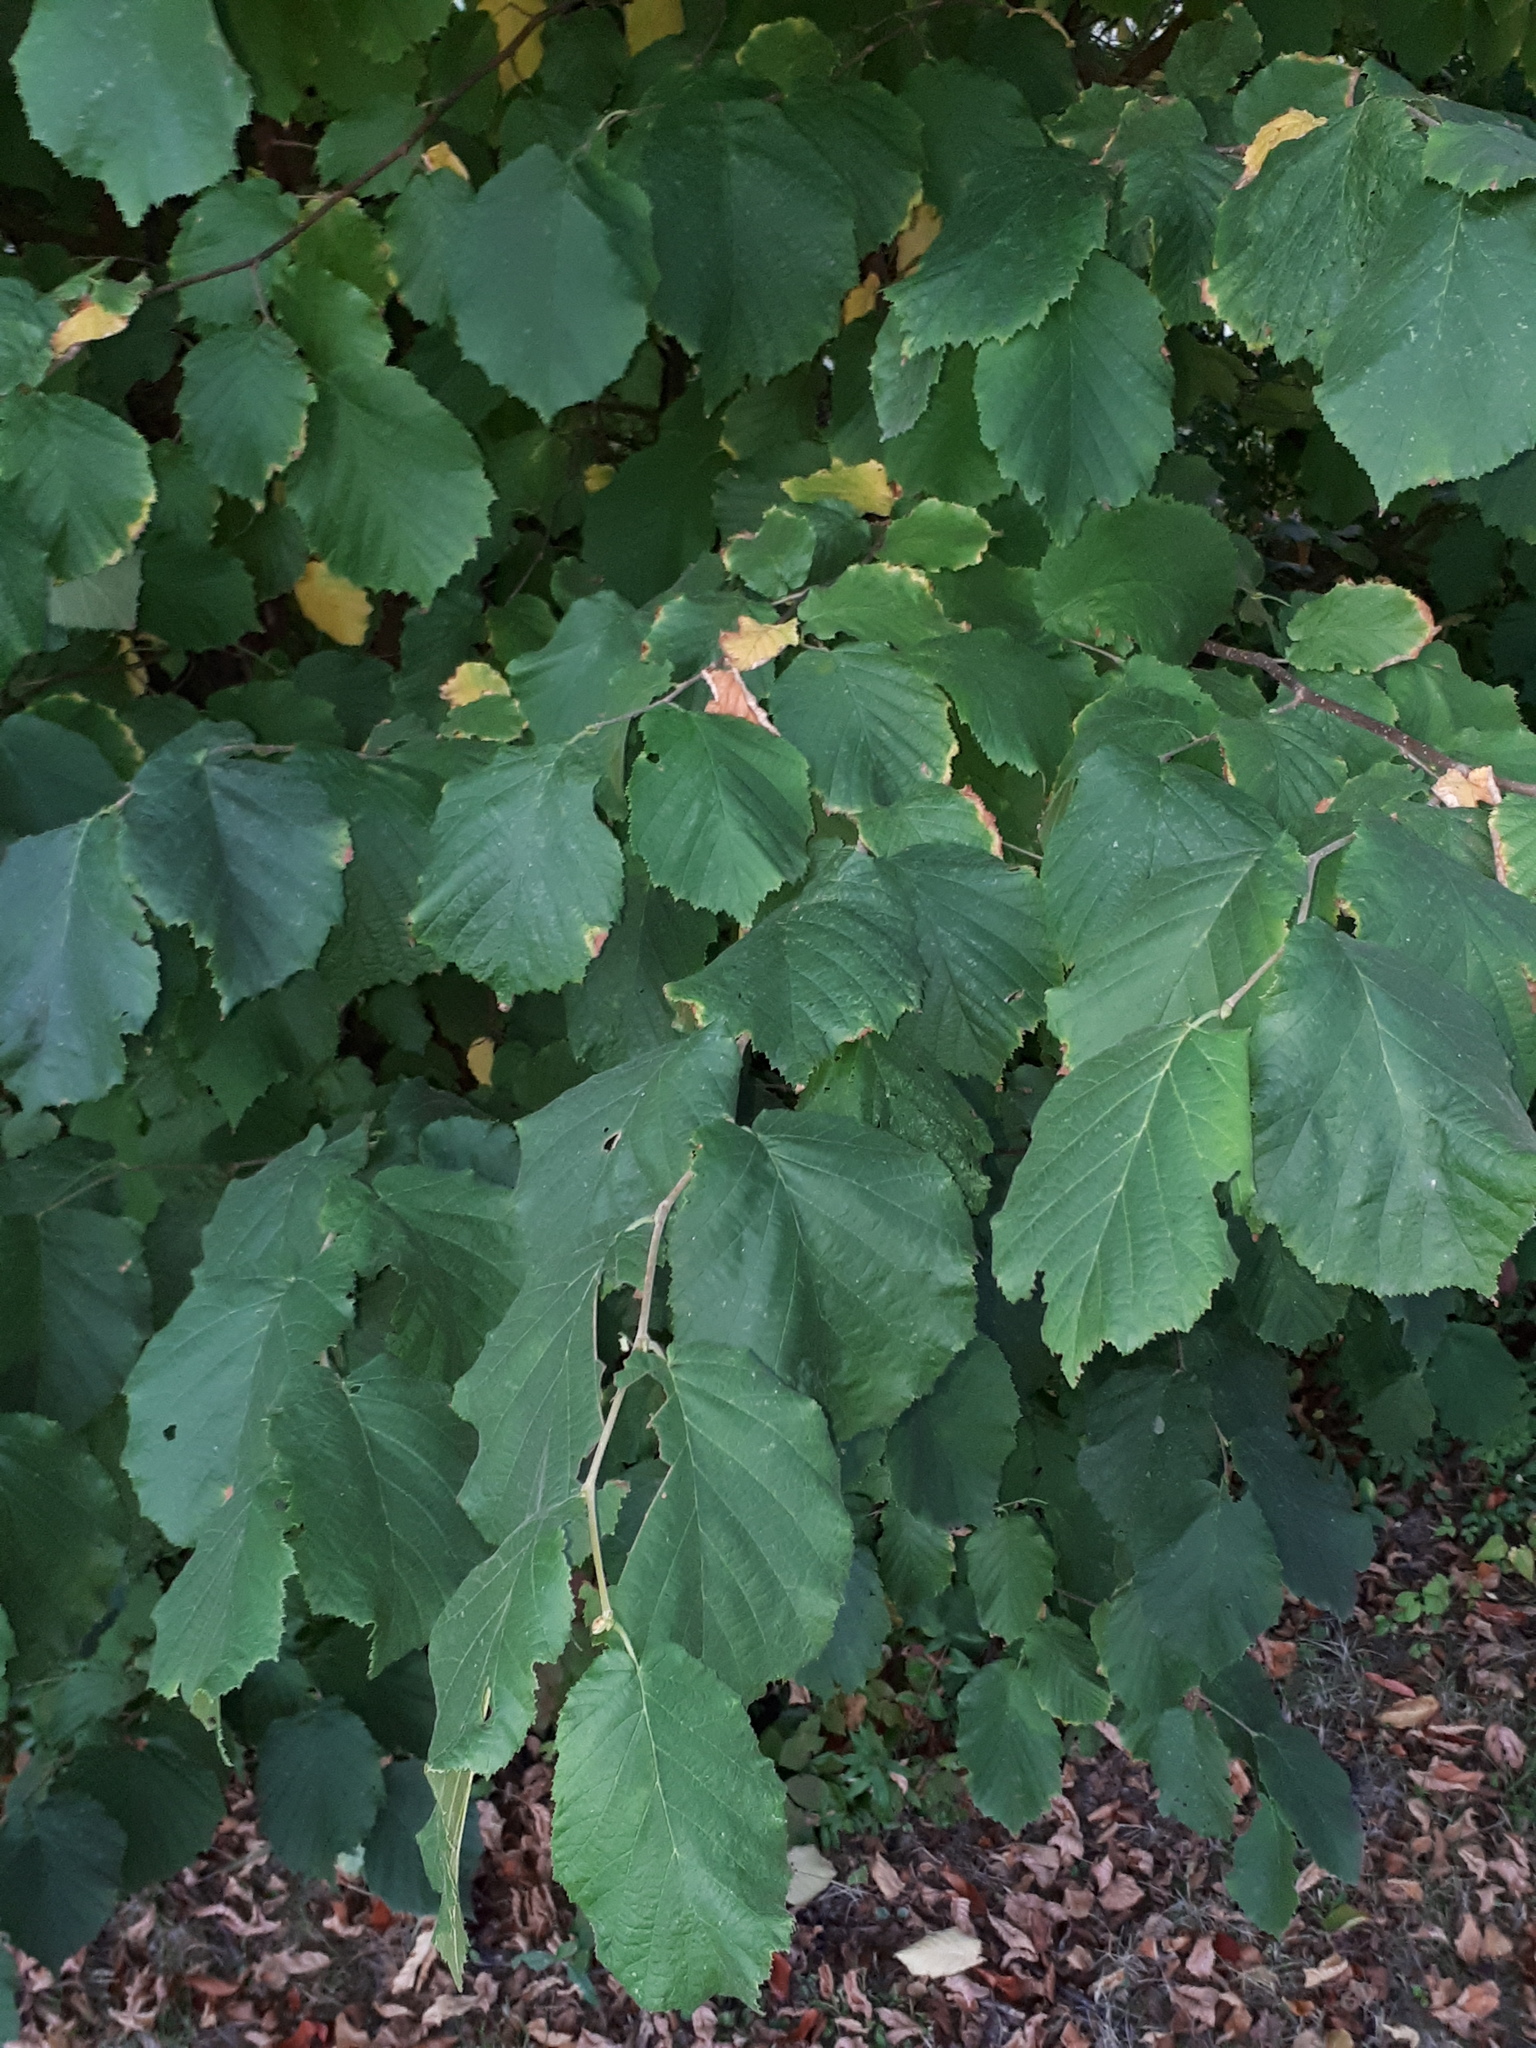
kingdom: Plantae
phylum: Tracheophyta
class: Magnoliopsida
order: Fagales
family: Betulaceae
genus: Corylus
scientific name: Corylus avellana
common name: European hazel
